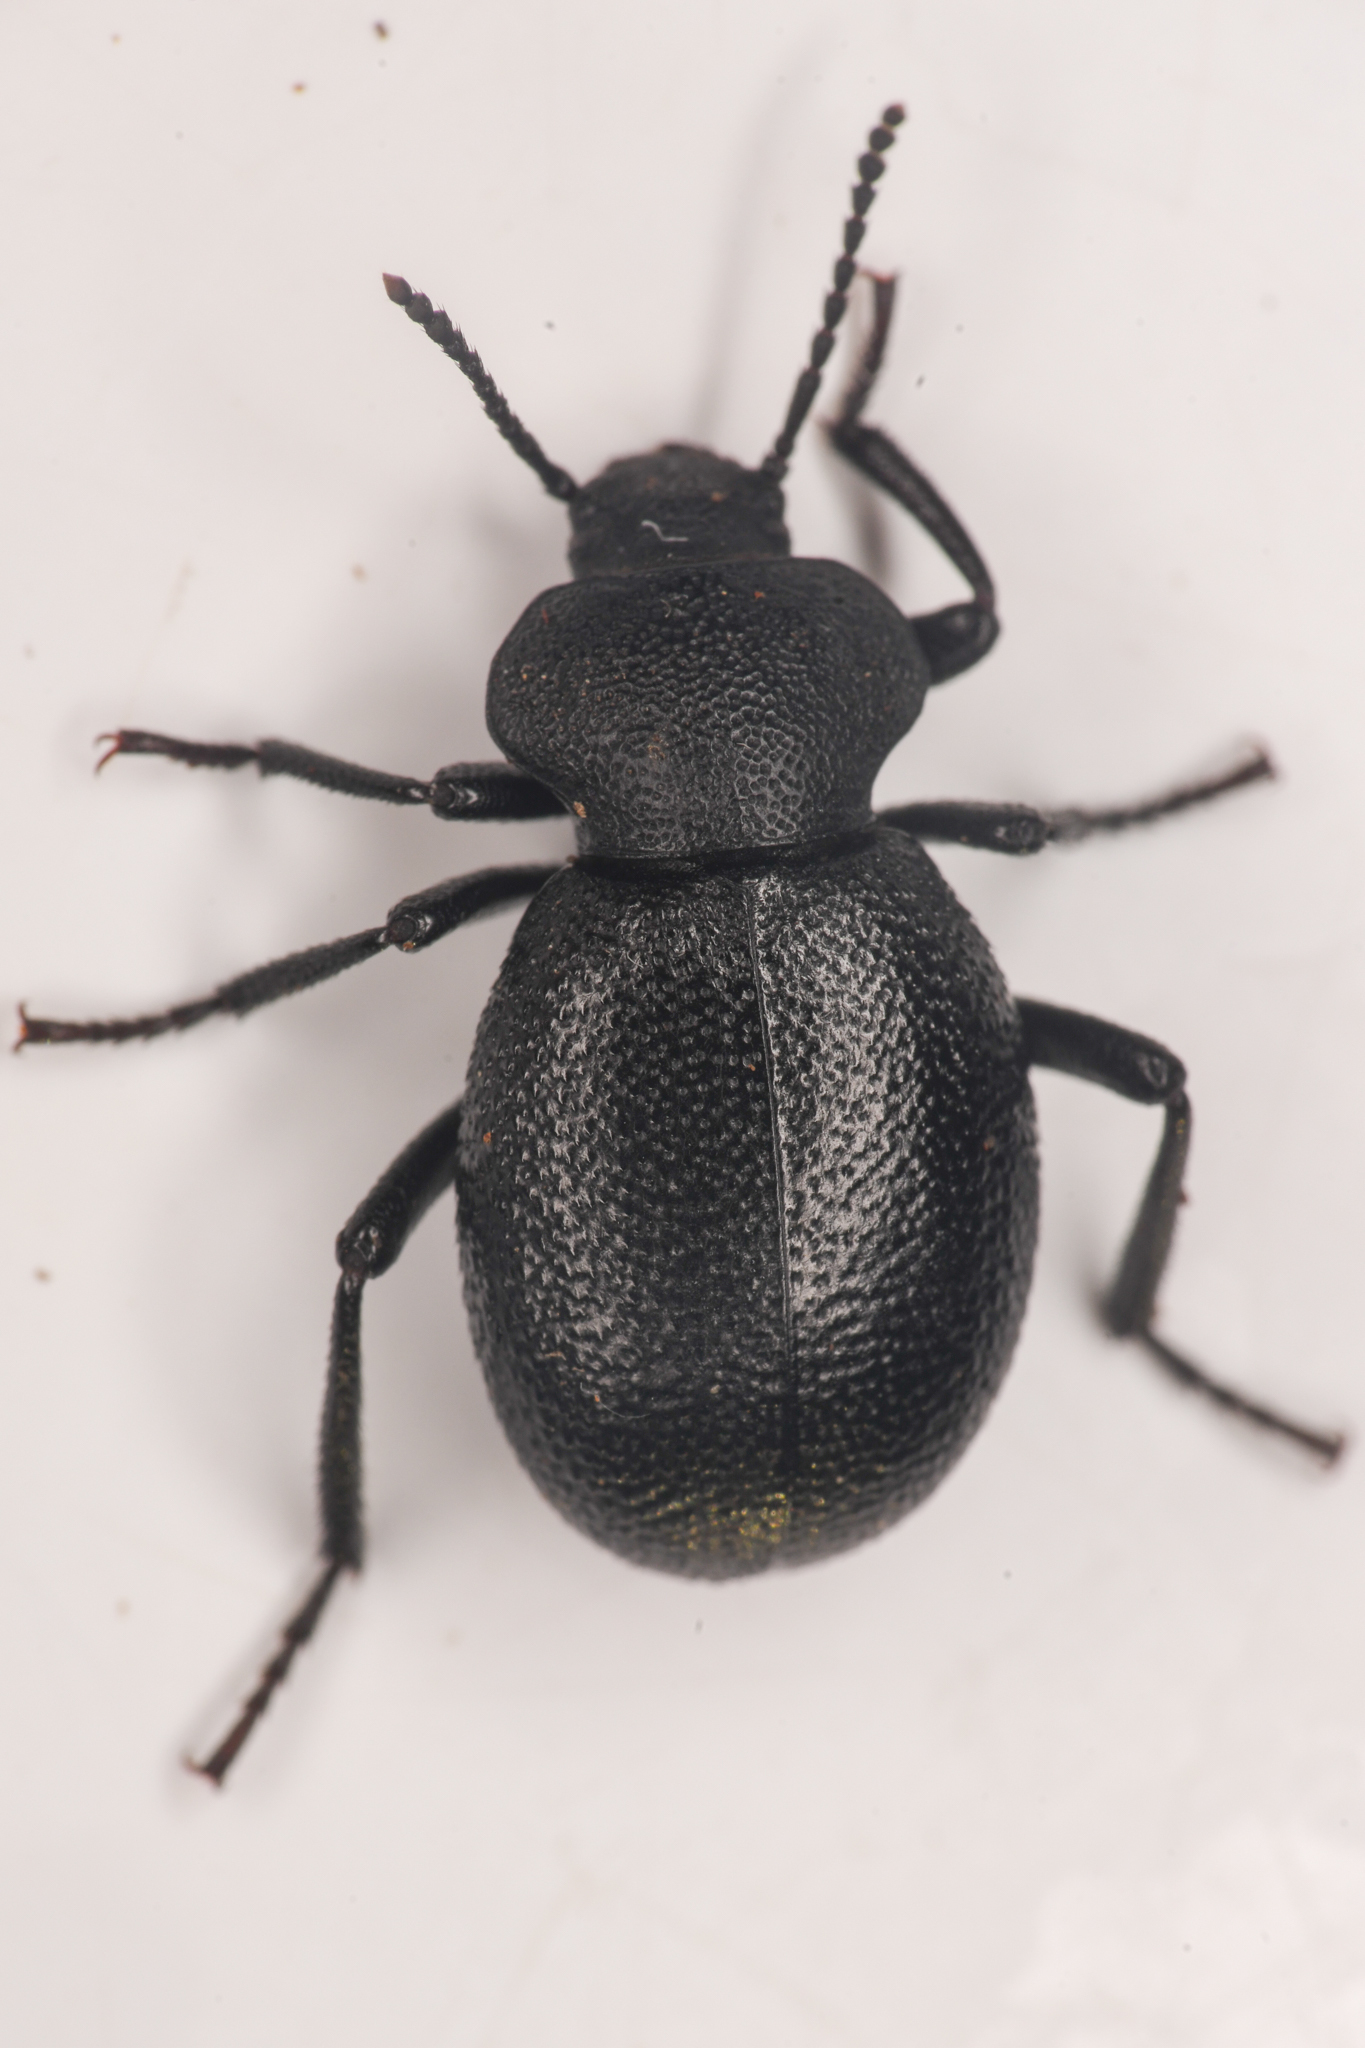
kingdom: Animalia
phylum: Arthropoda
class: Insecta
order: Coleoptera
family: Tenebrionidae
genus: Eleodes
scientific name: Eleodes cordata
